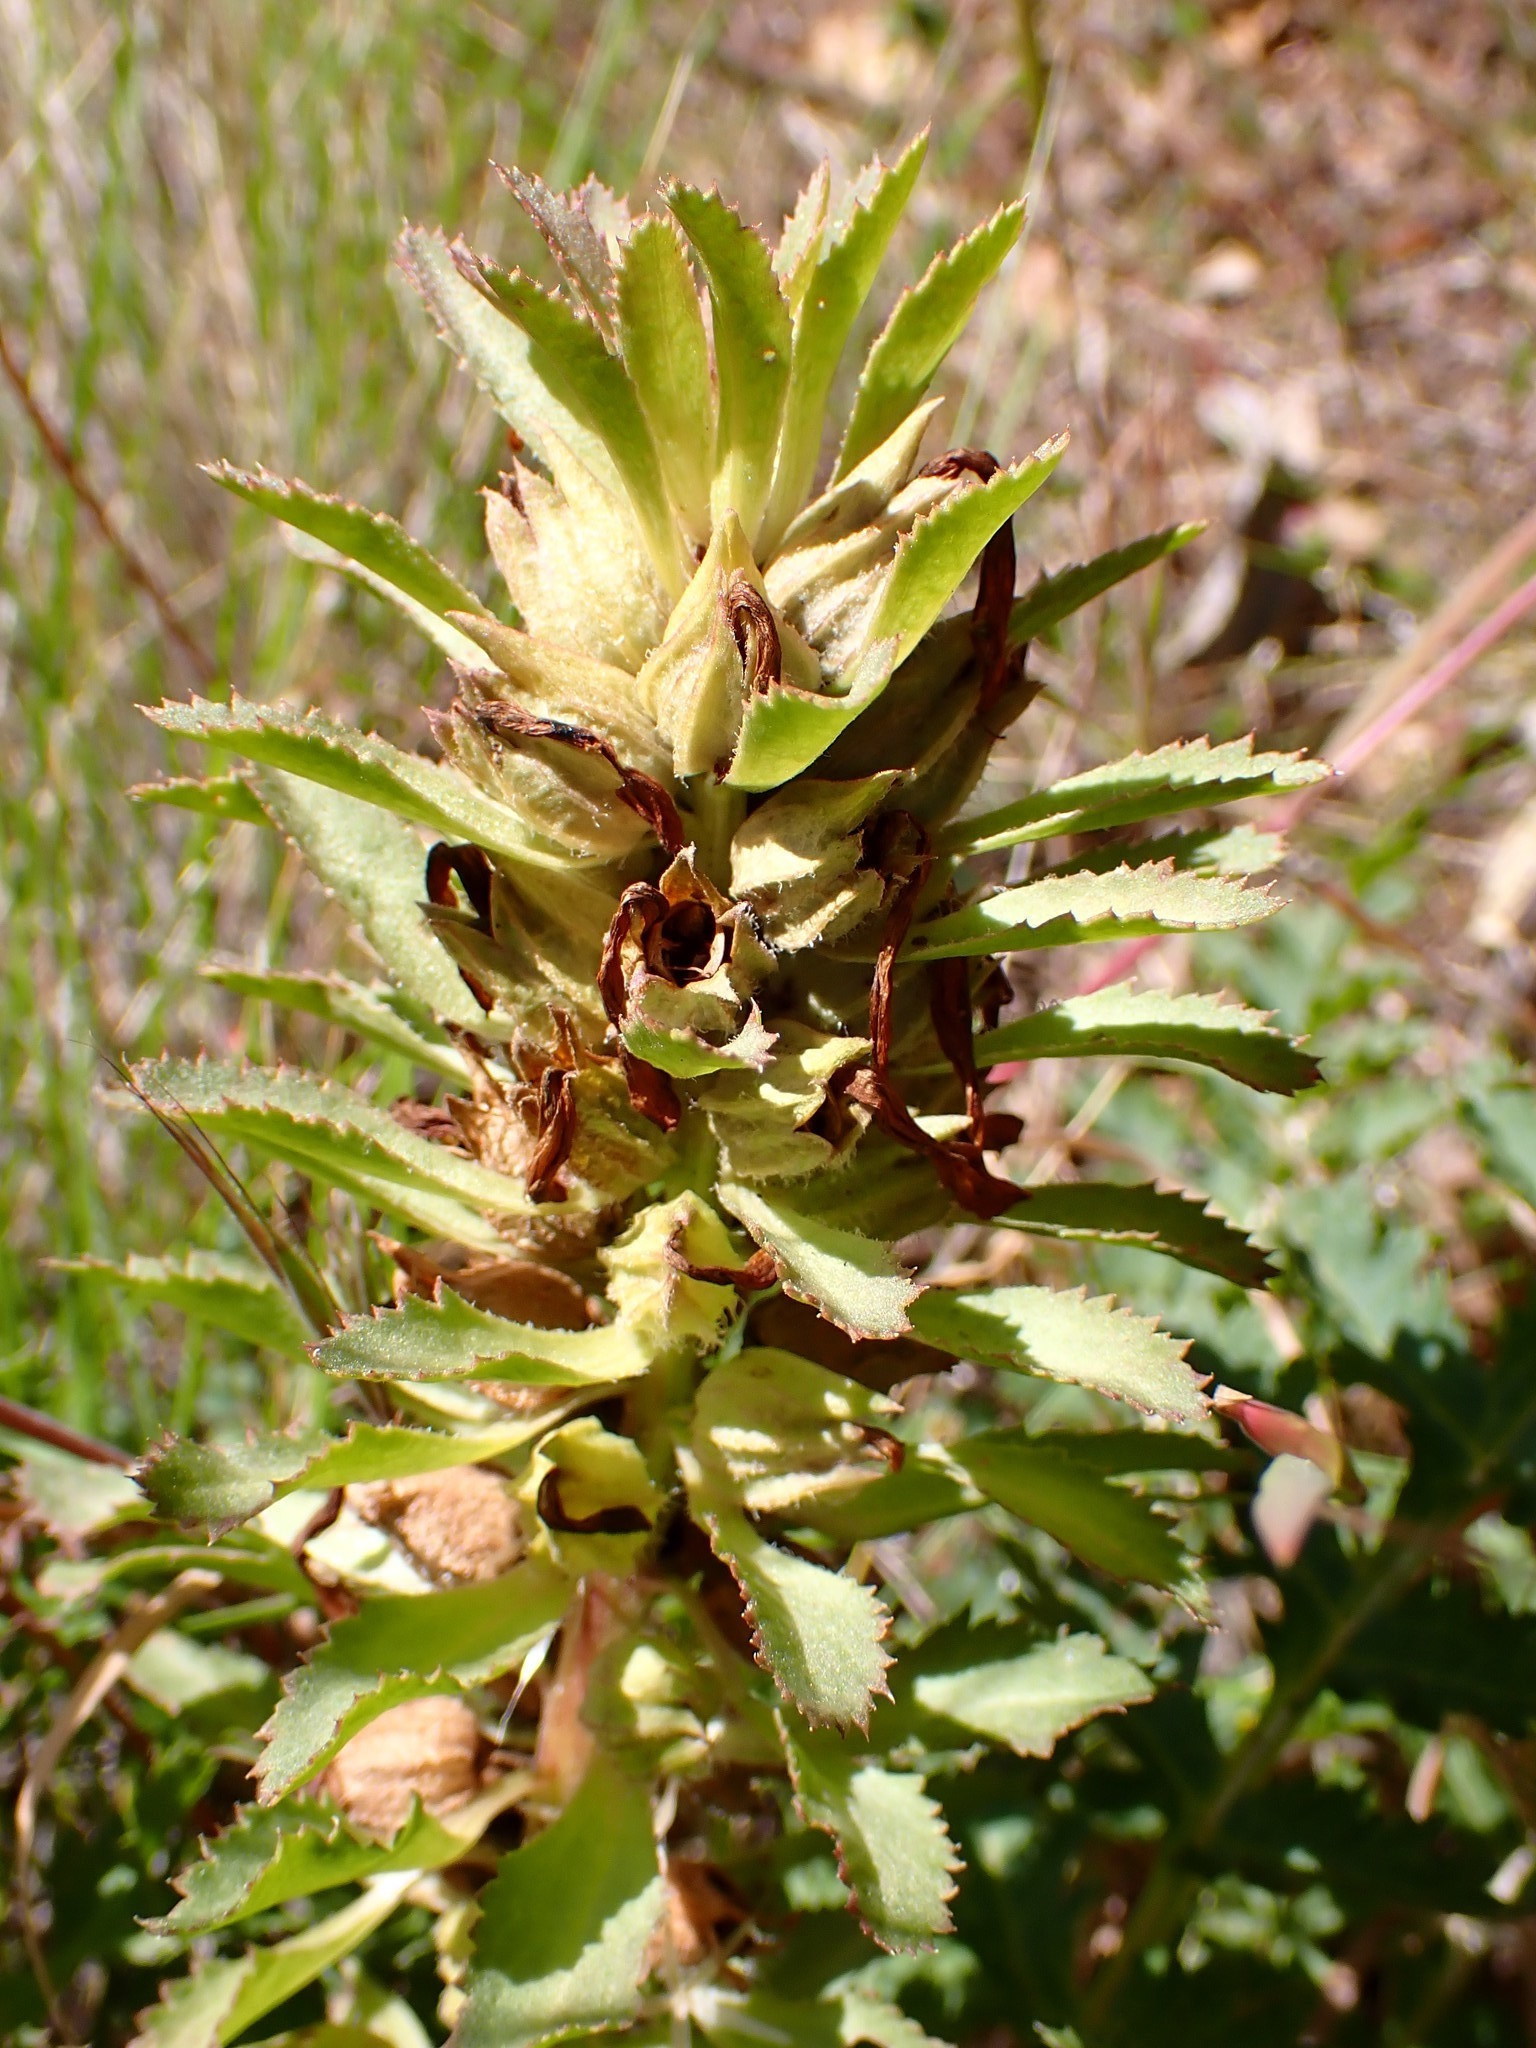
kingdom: Plantae
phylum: Tracheophyta
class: Magnoliopsida
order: Lamiales
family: Orobanchaceae
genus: Pedicularis
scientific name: Pedicularis densiflora
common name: Indian warrior
